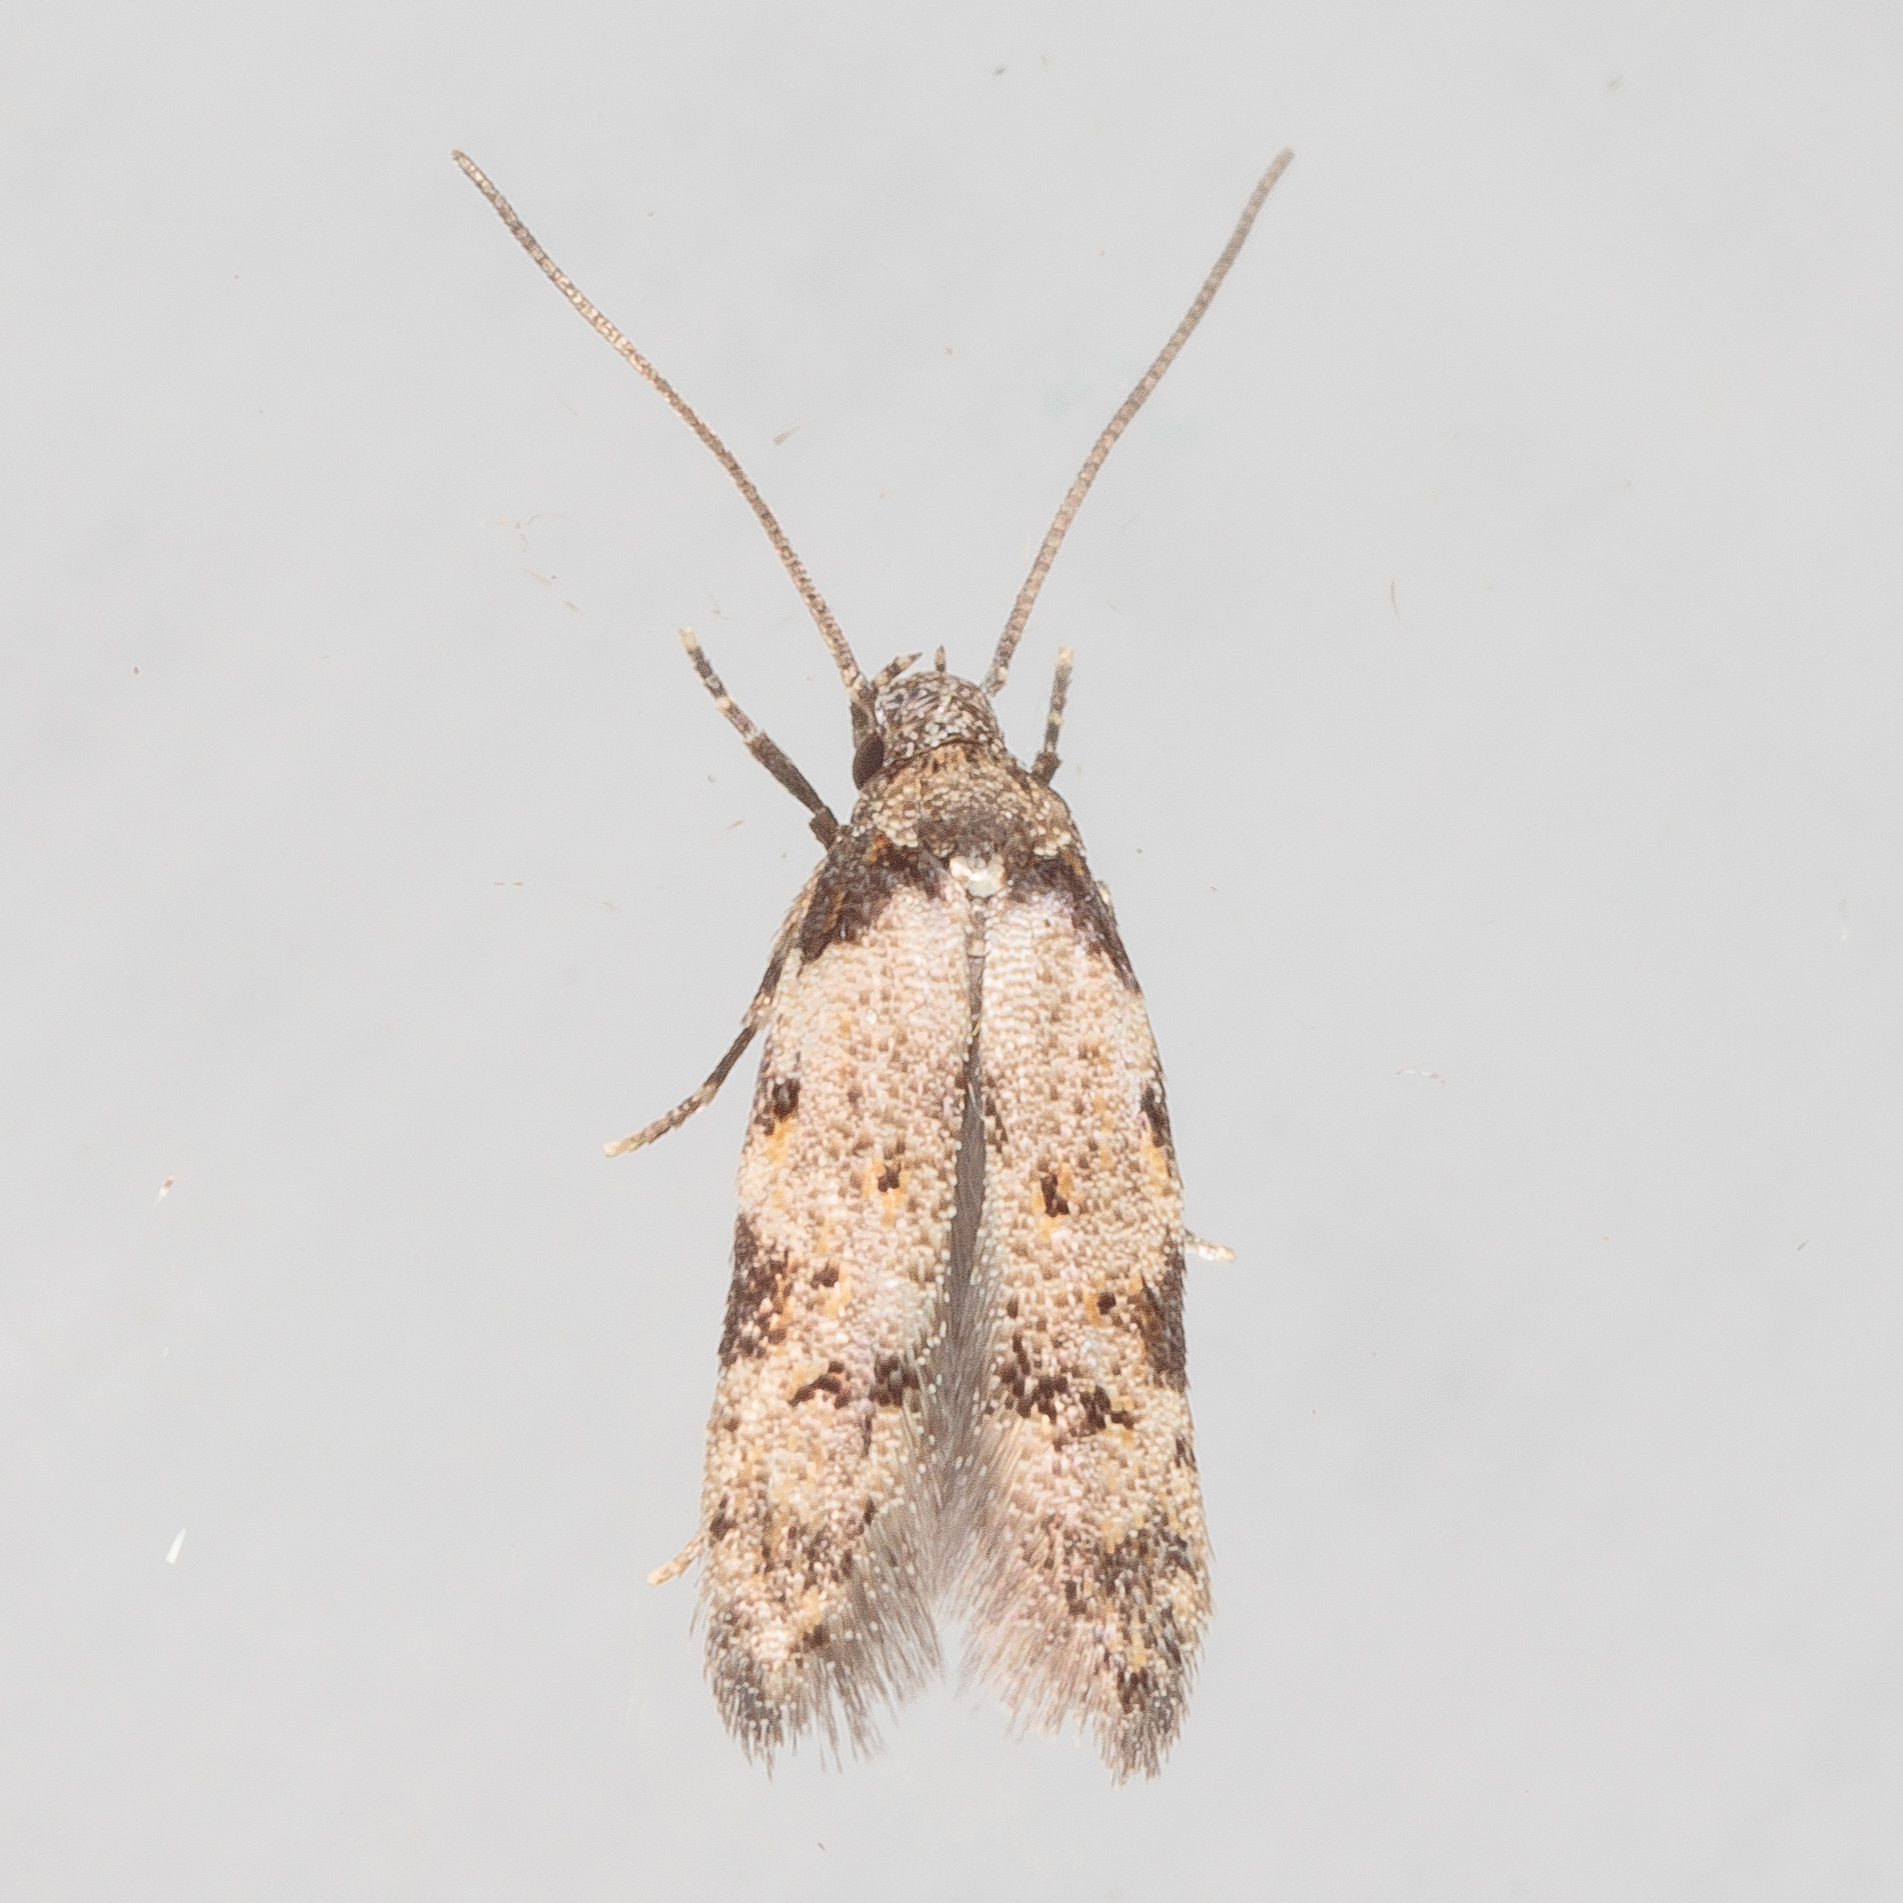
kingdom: Animalia
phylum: Arthropoda
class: Insecta
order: Lepidoptera
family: Autostichidae
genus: Taygete
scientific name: Taygete attributella
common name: Triangle-marked twirler moth
